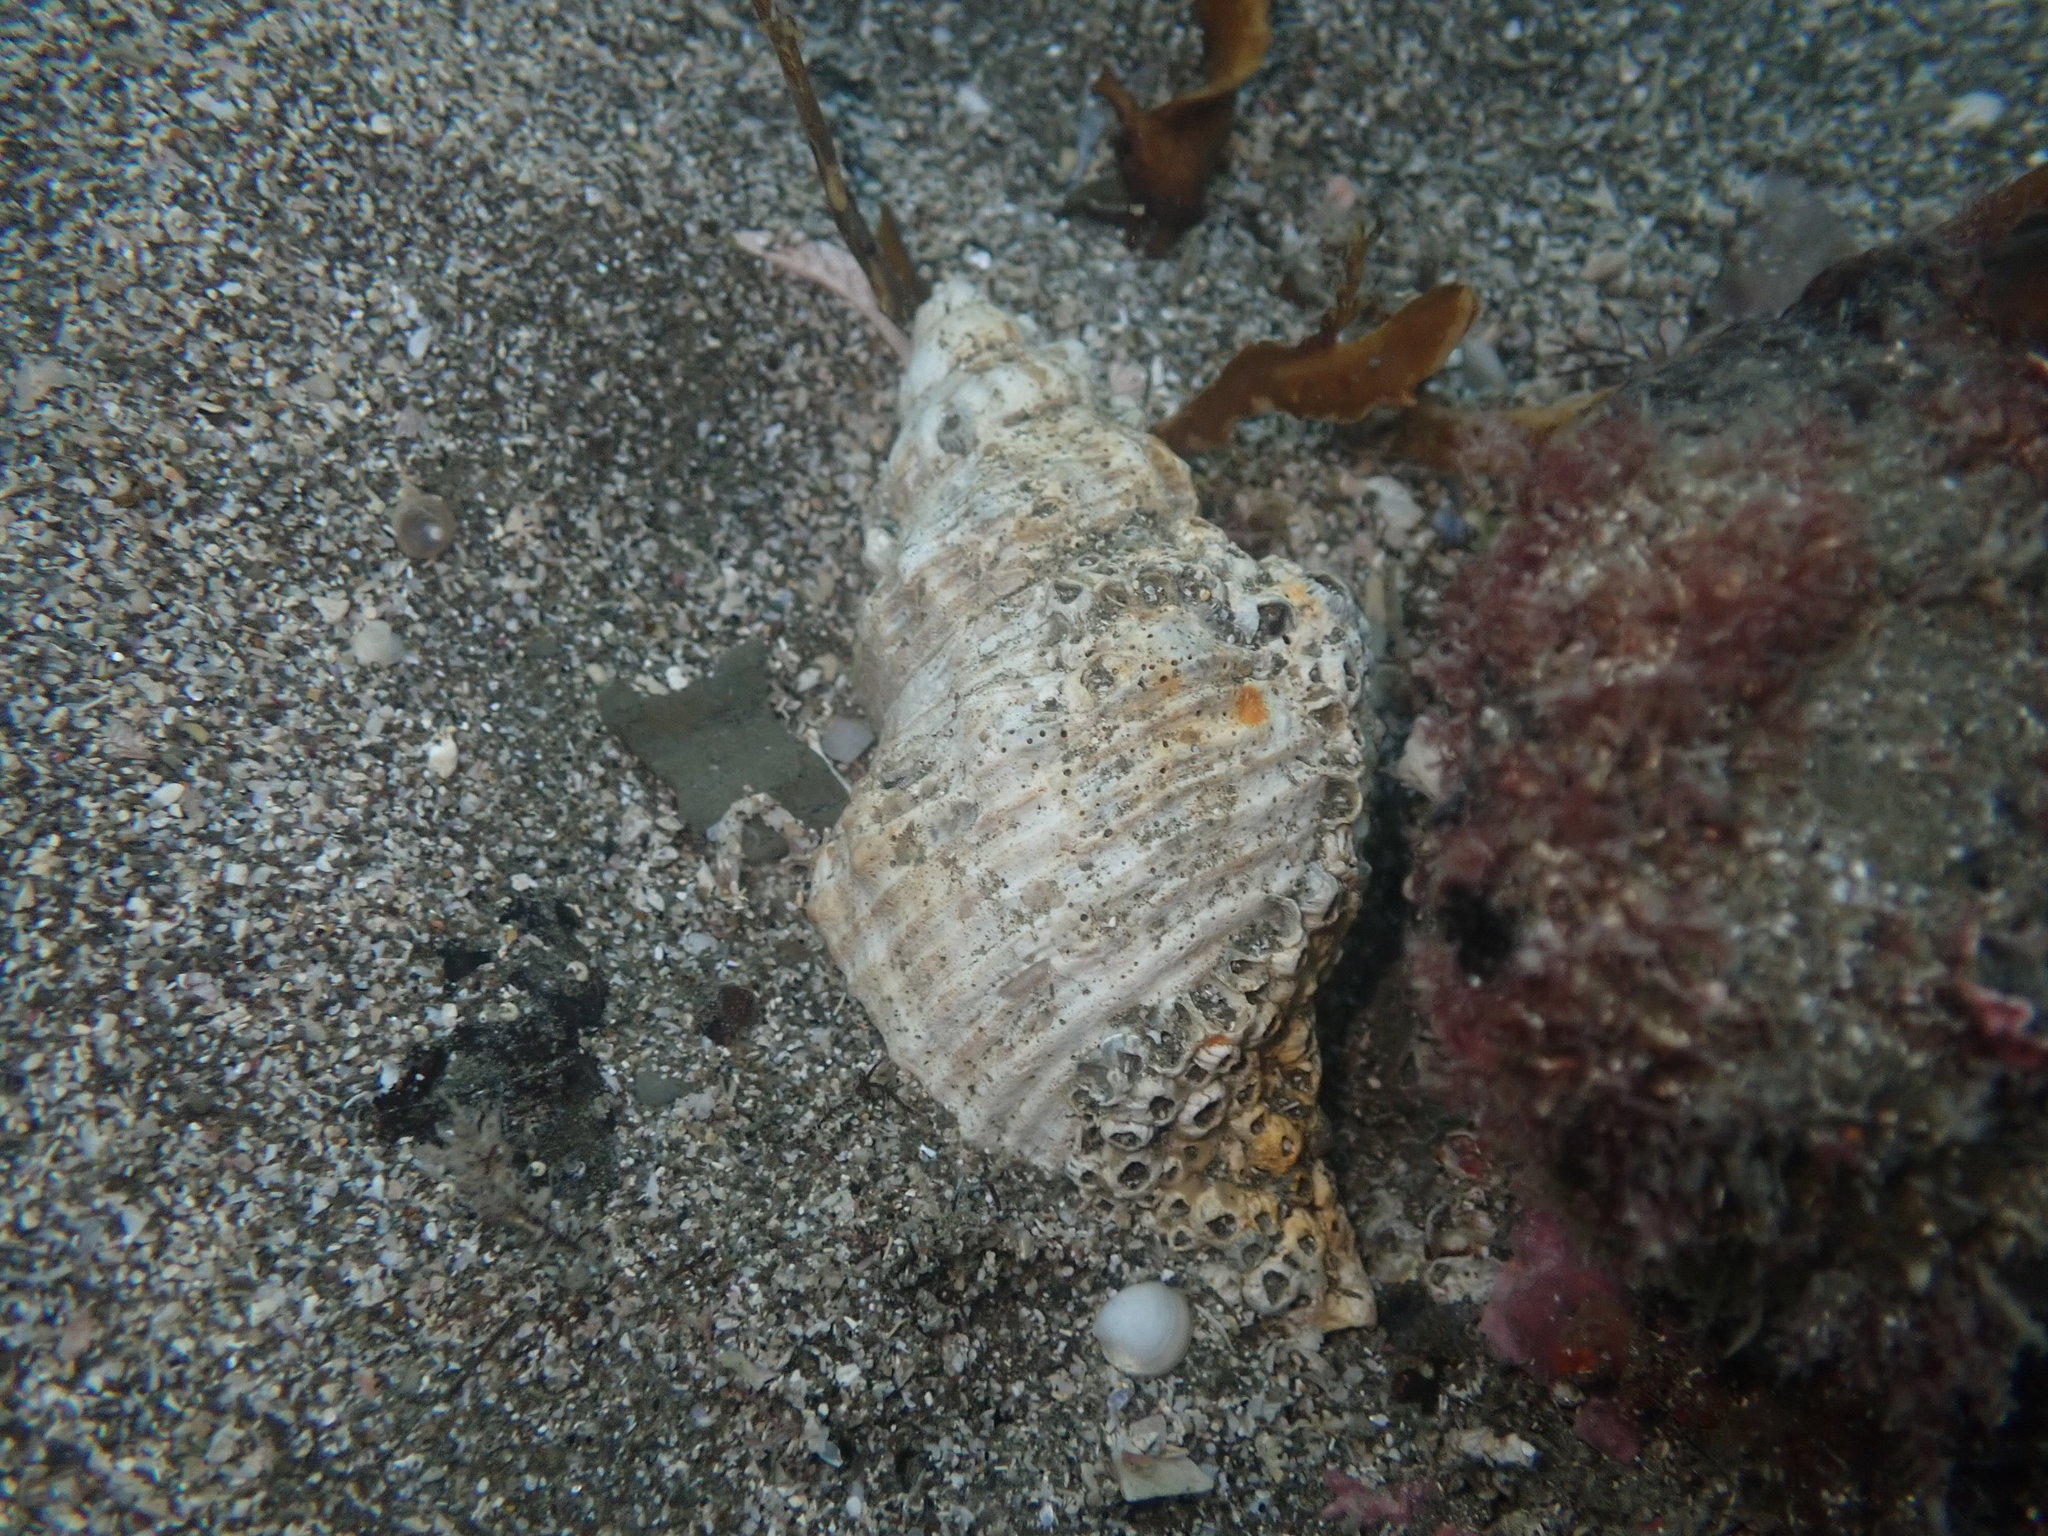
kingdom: Animalia
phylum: Mollusca
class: Gastropoda
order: Neogastropoda
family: Austrosiphonidae
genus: Penion
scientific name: Penion sulcatus
